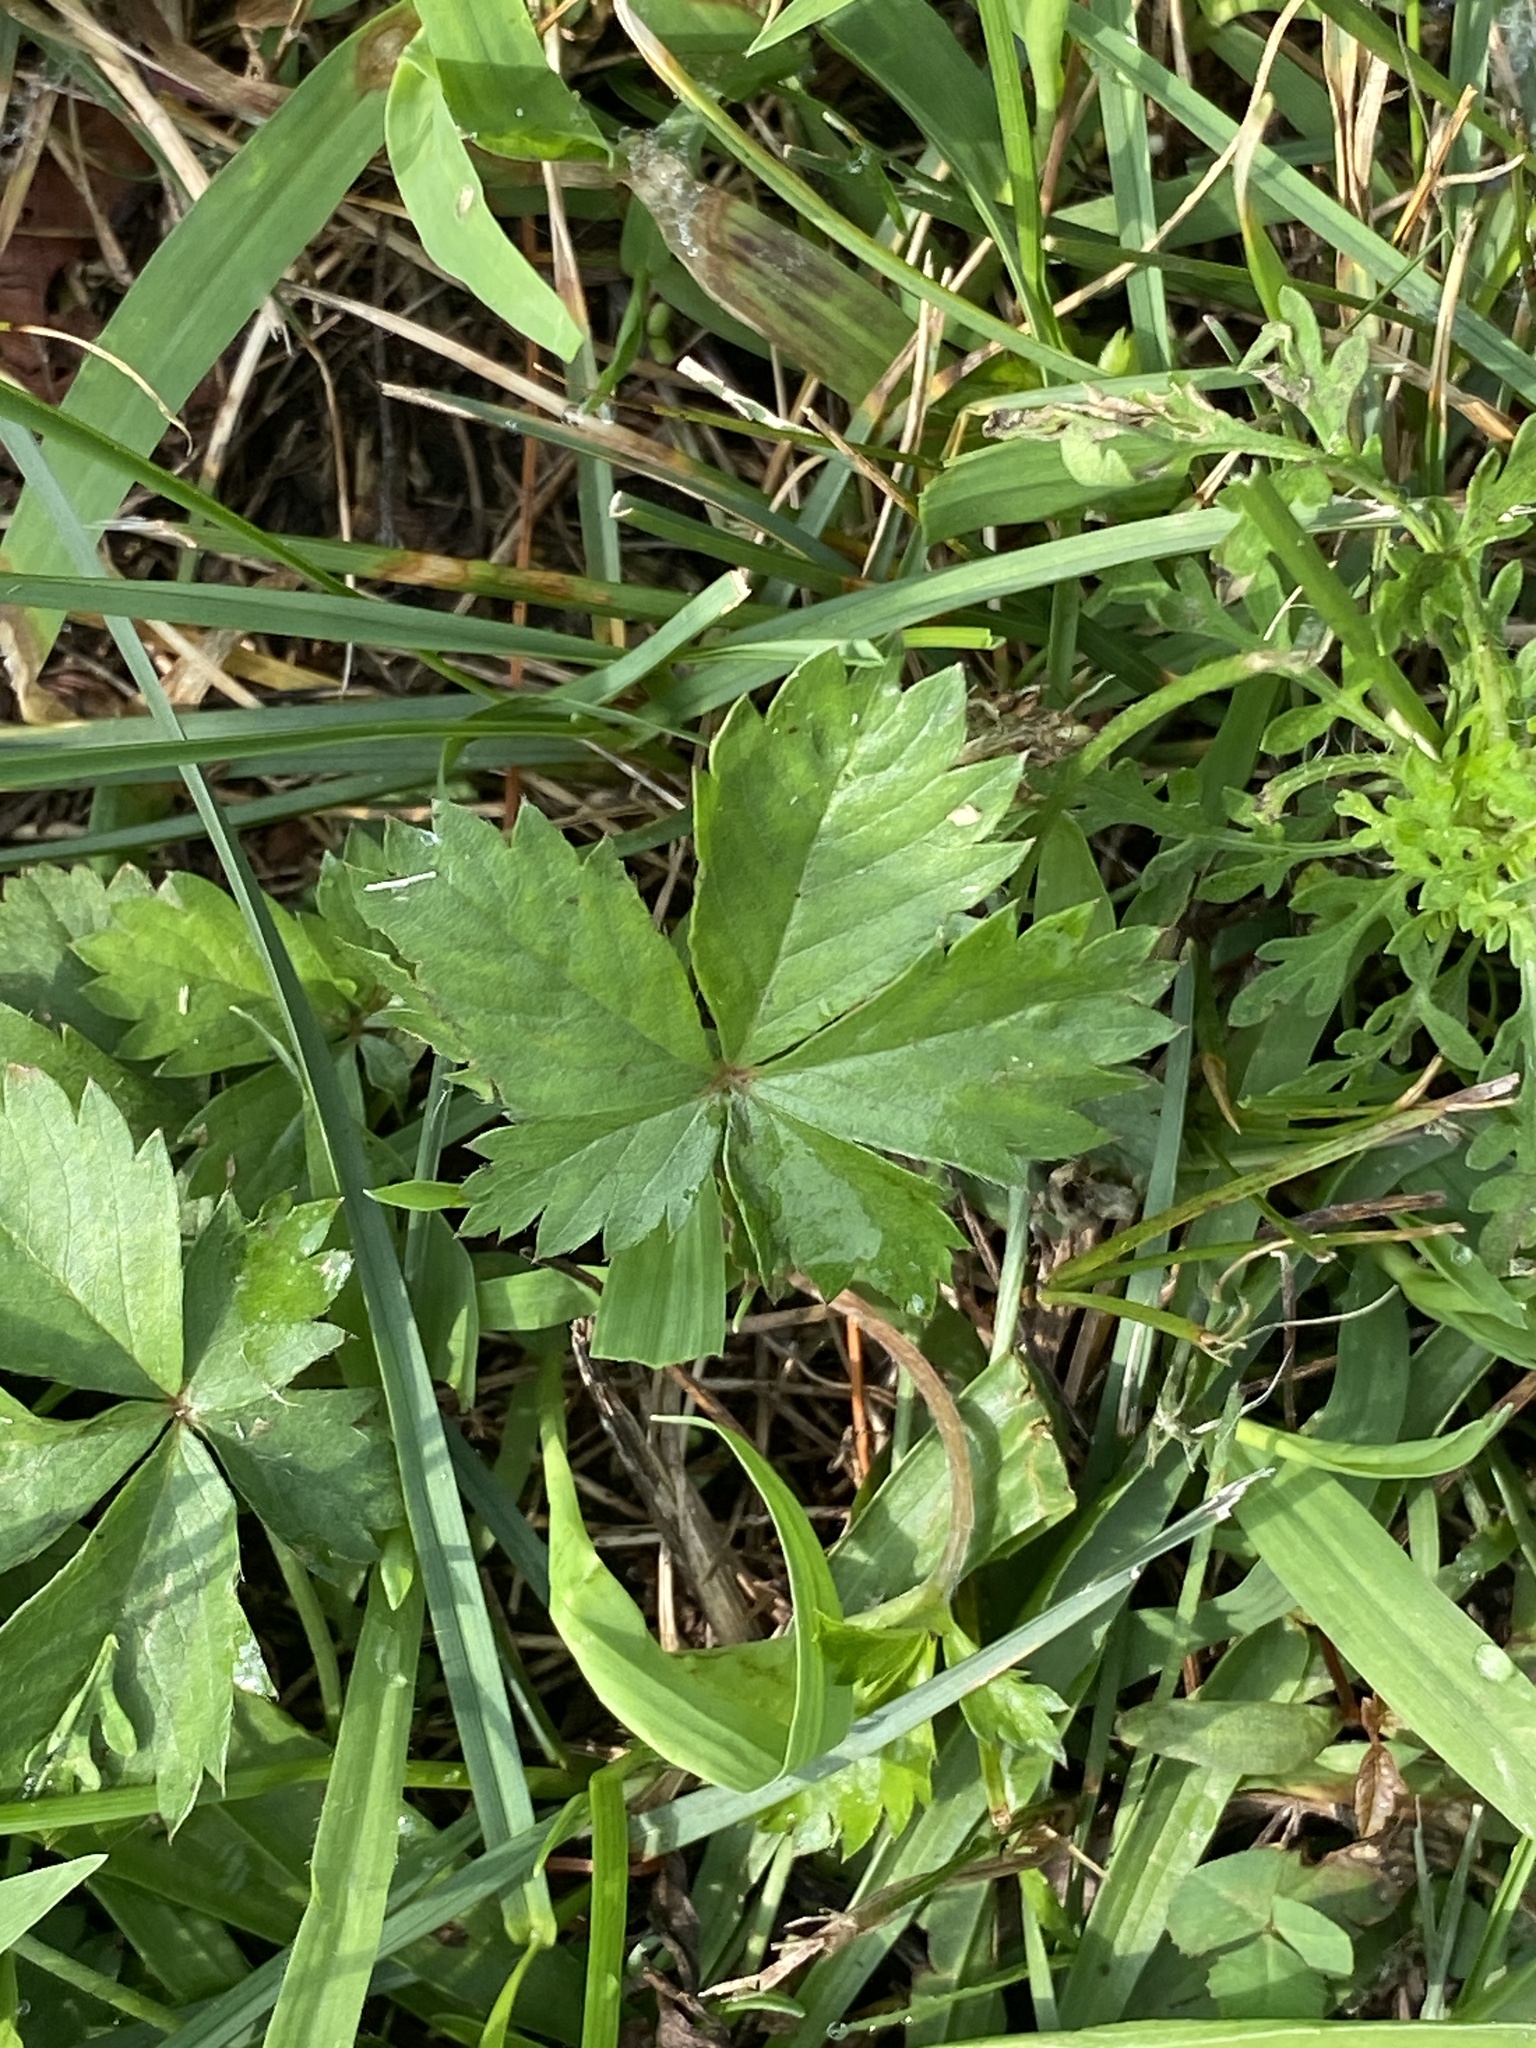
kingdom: Plantae
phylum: Tracheophyta
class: Magnoliopsida
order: Rosales
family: Rosaceae
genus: Potentilla
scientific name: Potentilla canadensis
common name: Canada cinquefoil
